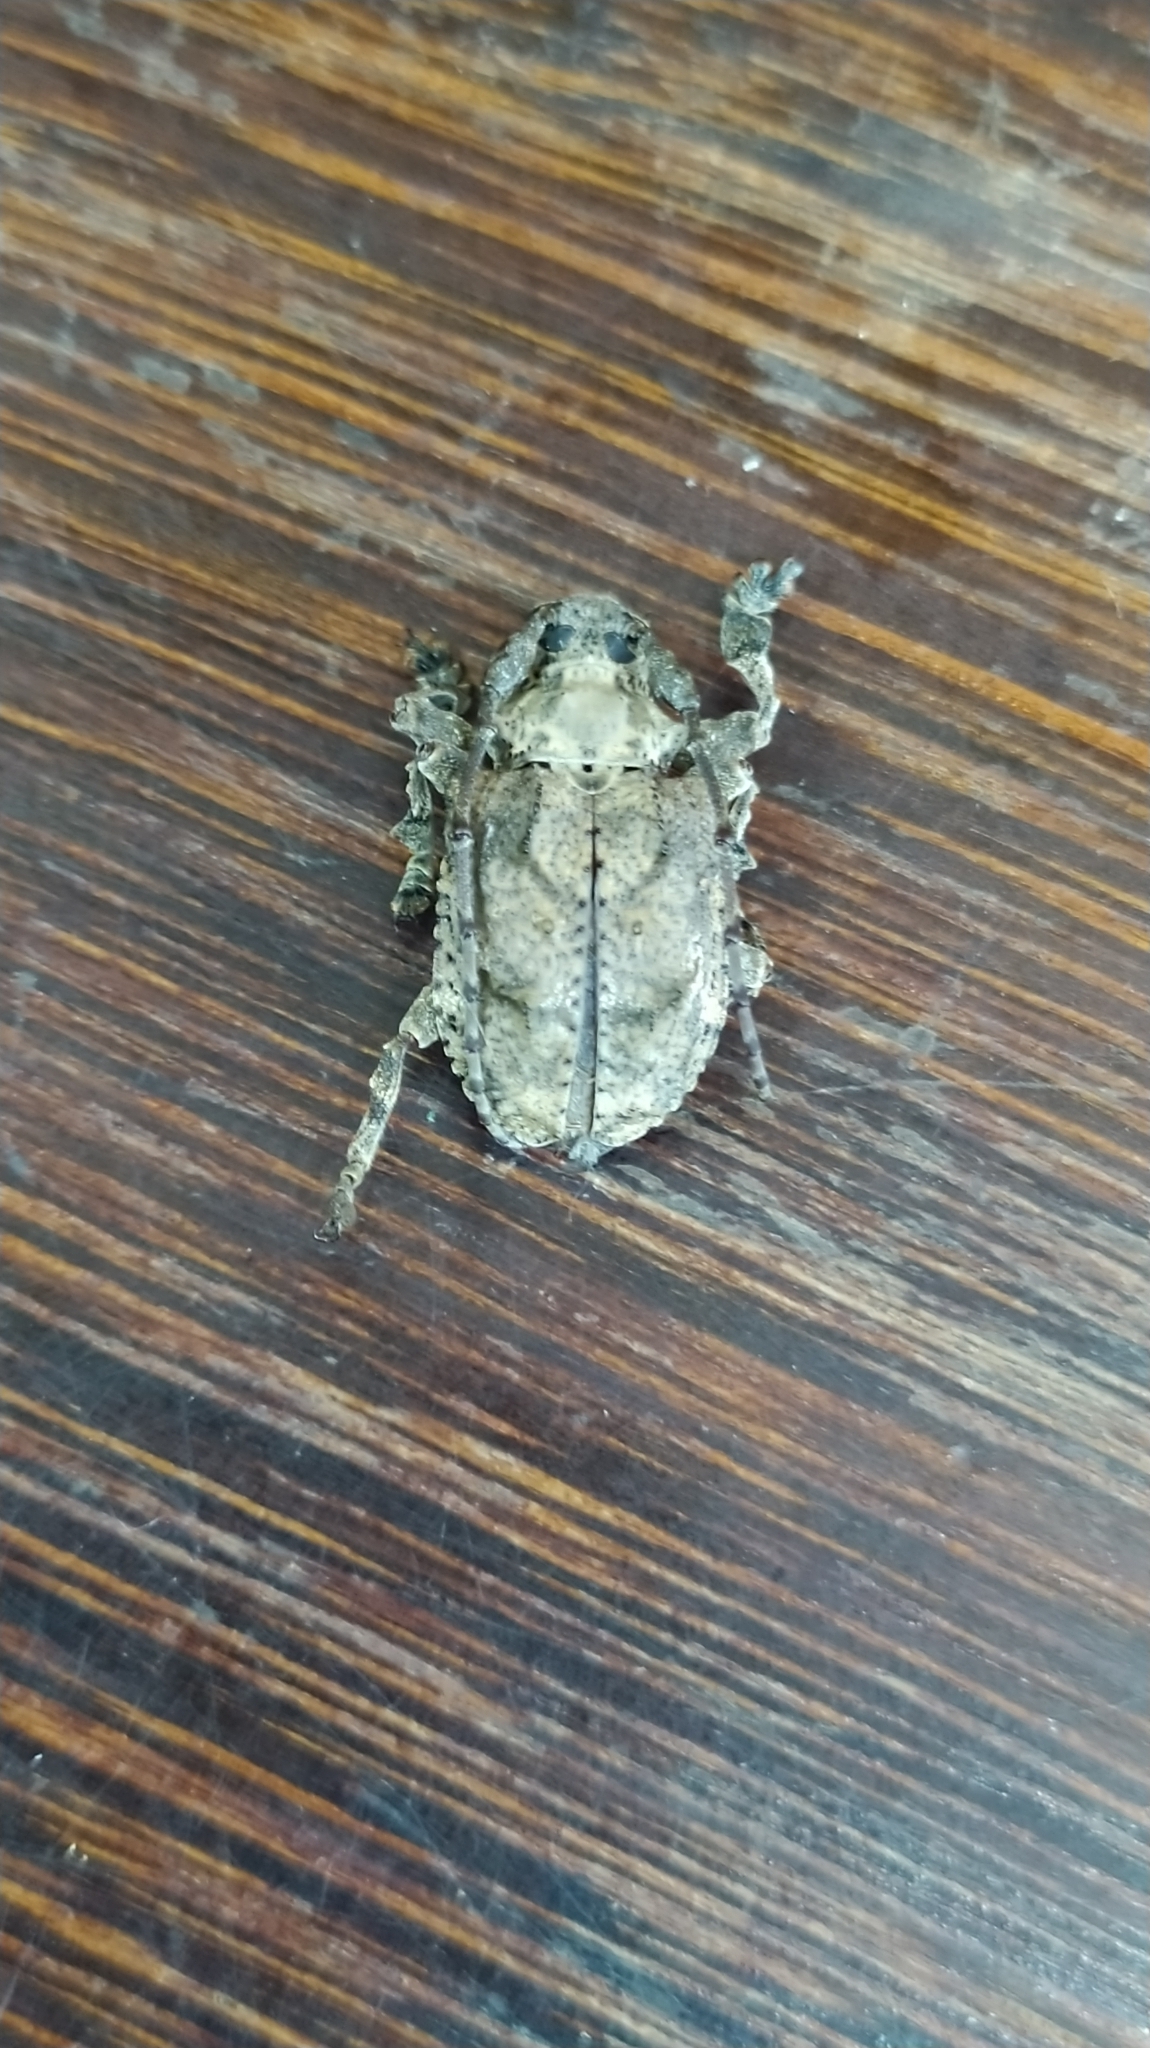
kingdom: Animalia
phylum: Arthropoda
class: Insecta
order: Coleoptera
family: Cerambycidae
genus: Onychocerus
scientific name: Onychocerus crassus
